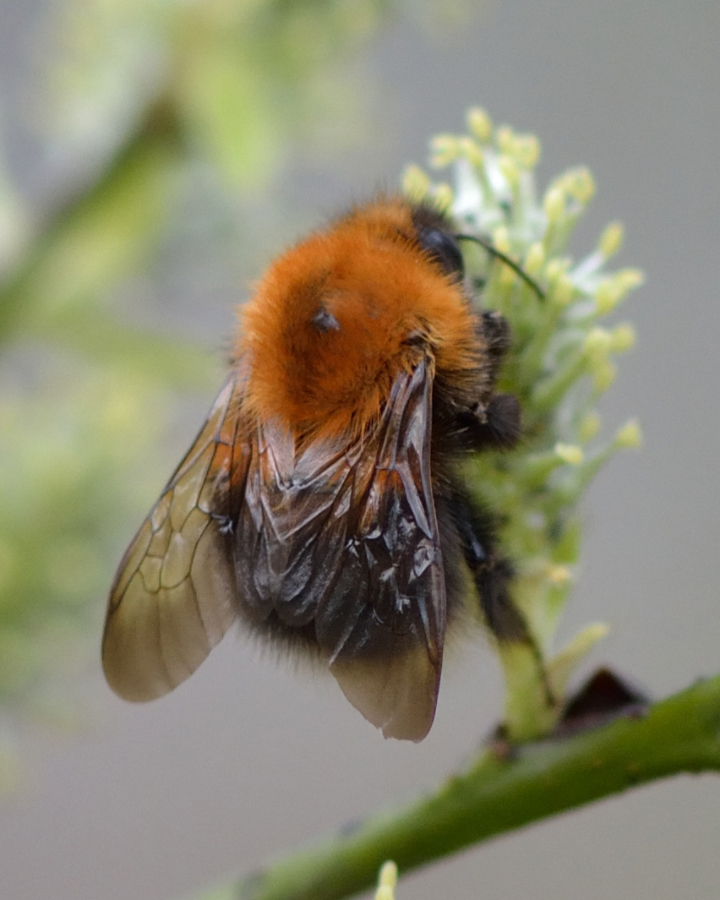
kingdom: Animalia
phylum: Arthropoda
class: Insecta
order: Hymenoptera
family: Apidae
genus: Bombus
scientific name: Bombus hypnorum
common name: New garden bumblebee
